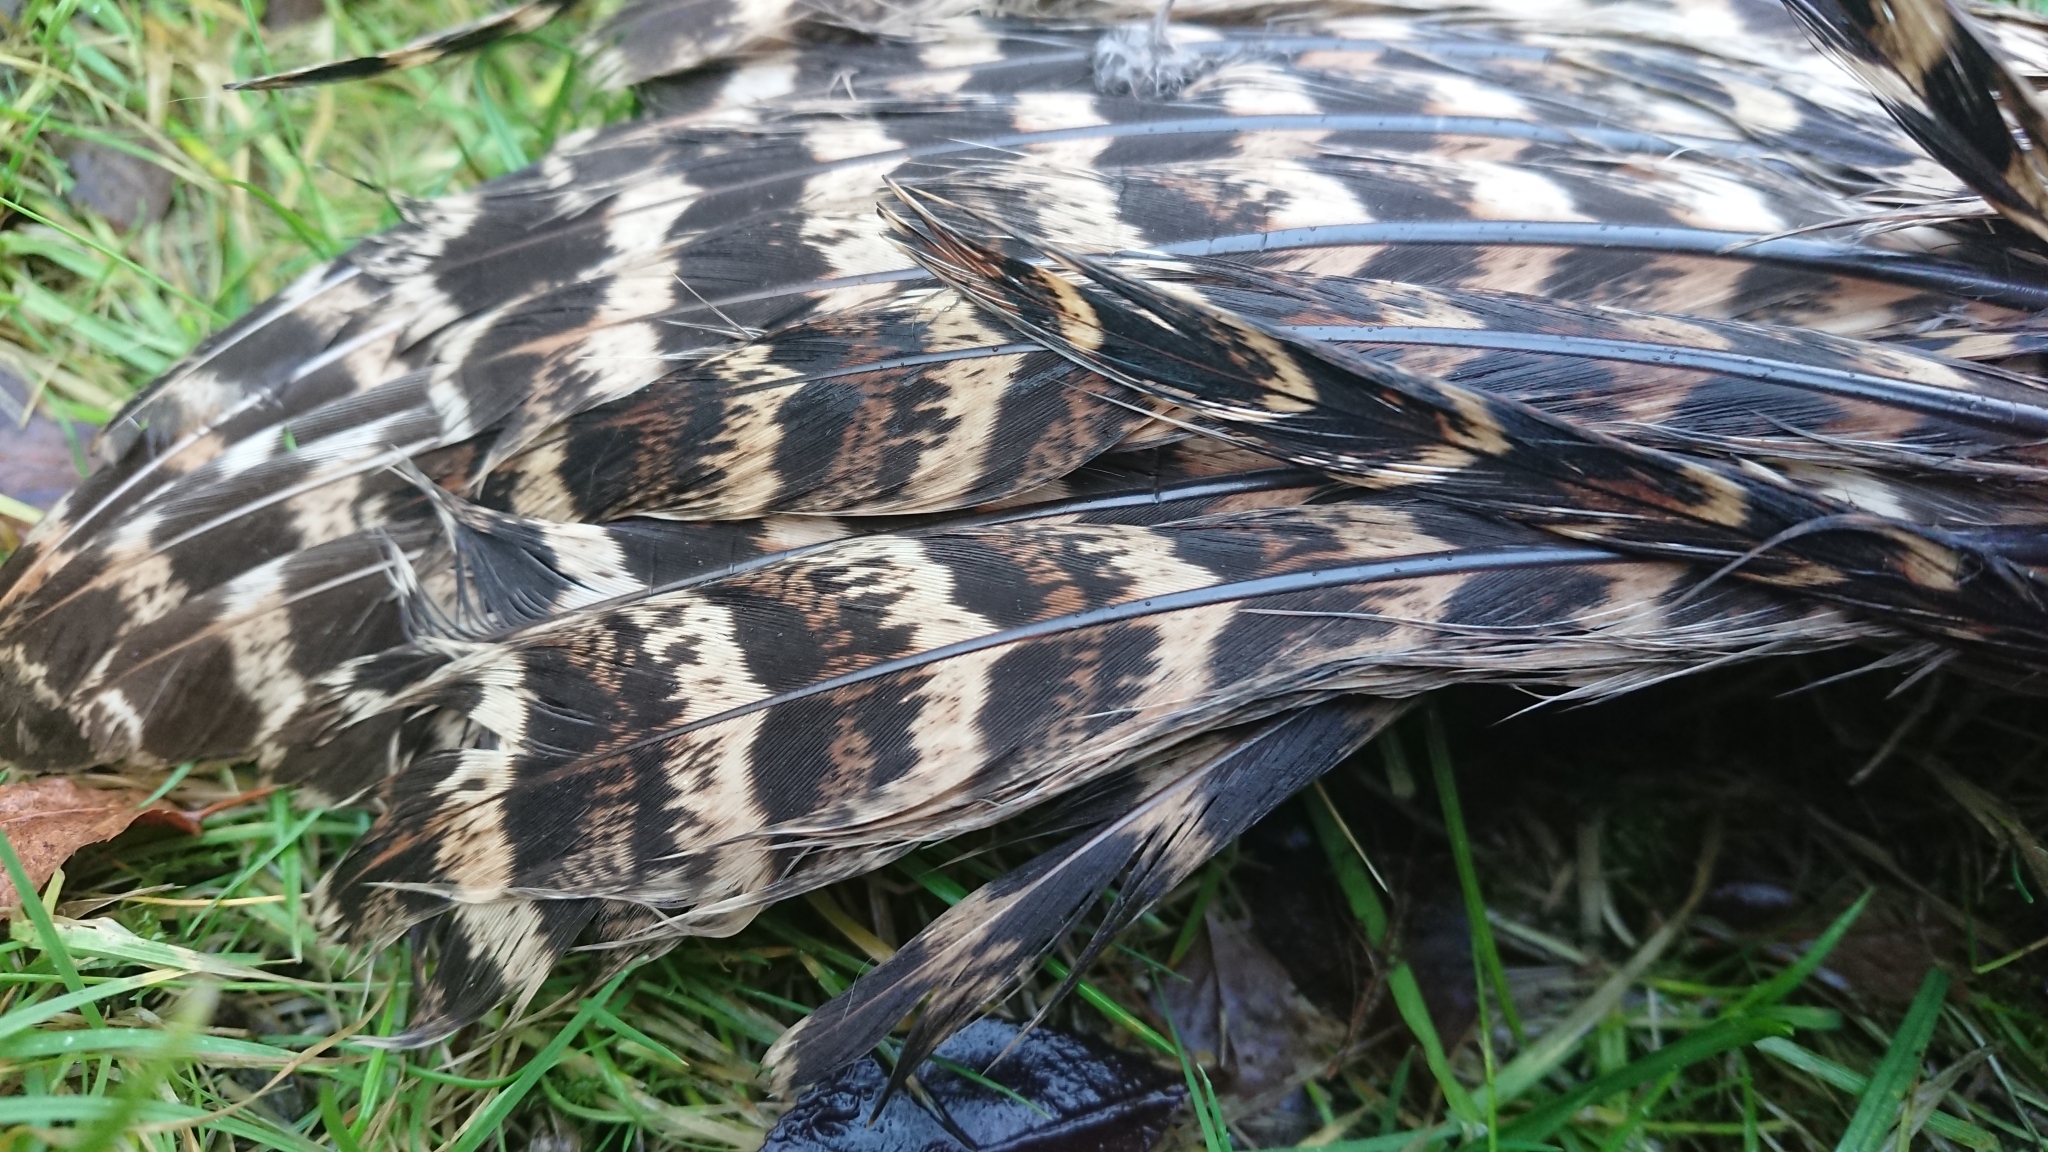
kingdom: Animalia
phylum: Chordata
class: Aves
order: Galliformes
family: Phasianidae
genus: Phasianus
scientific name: Phasianus colchicus
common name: Common pheasant
